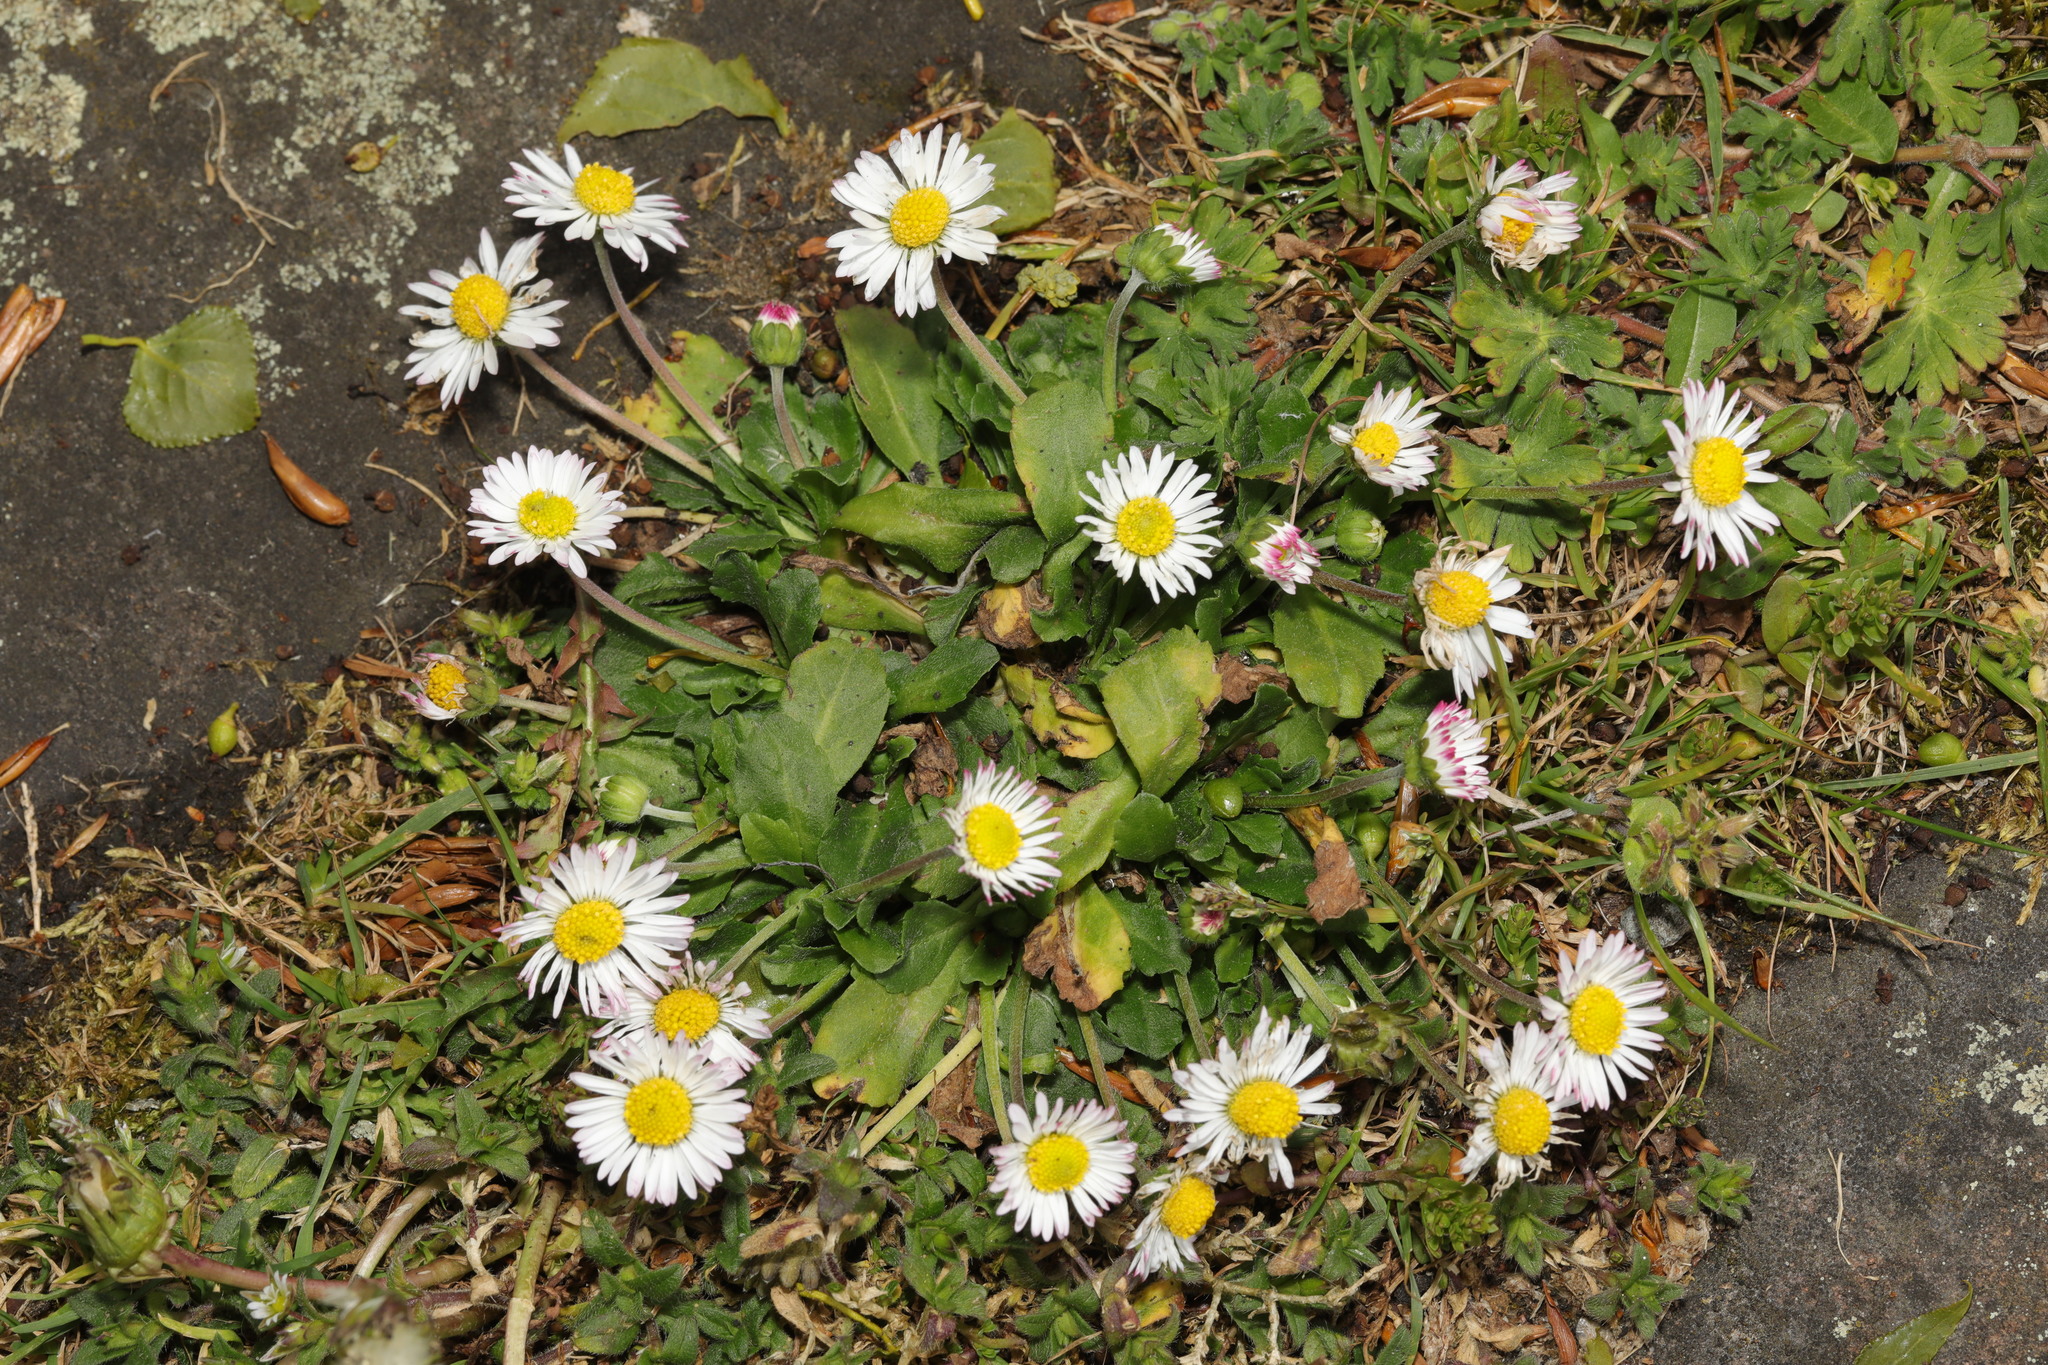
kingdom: Plantae
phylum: Tracheophyta
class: Magnoliopsida
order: Asterales
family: Asteraceae
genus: Bellis
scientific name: Bellis perennis
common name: Lawndaisy
